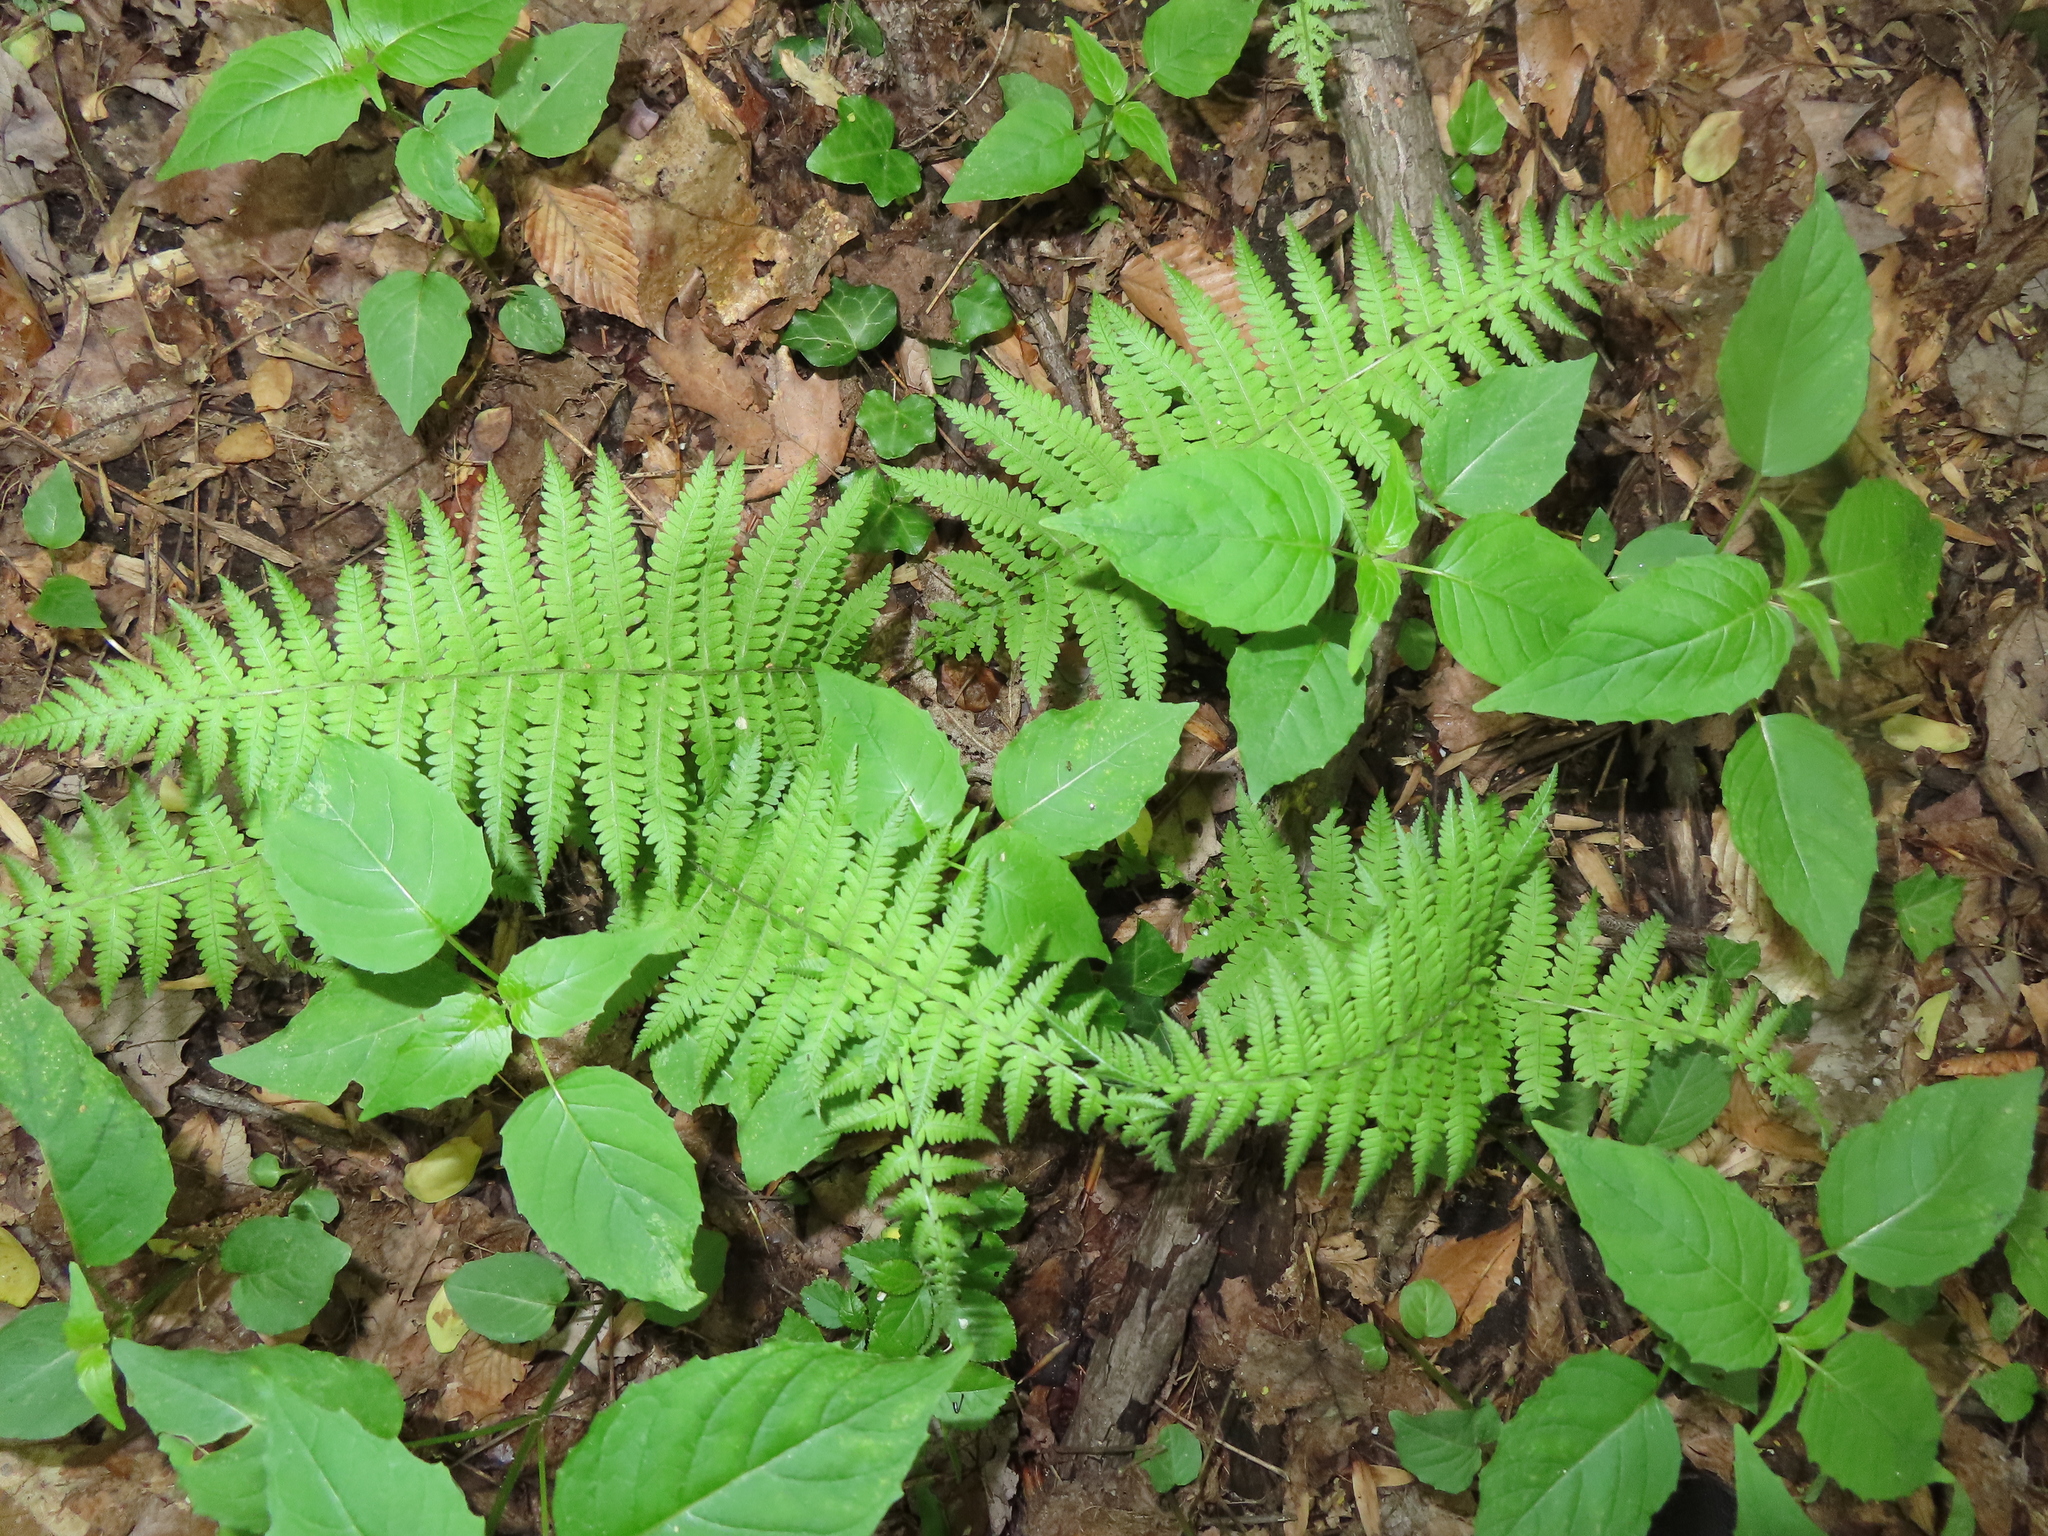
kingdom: Plantae
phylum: Tracheophyta
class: Polypodiopsida
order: Polypodiales
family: Thelypteridaceae
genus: Amauropelta
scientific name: Amauropelta noveboracensis
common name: New york fern
